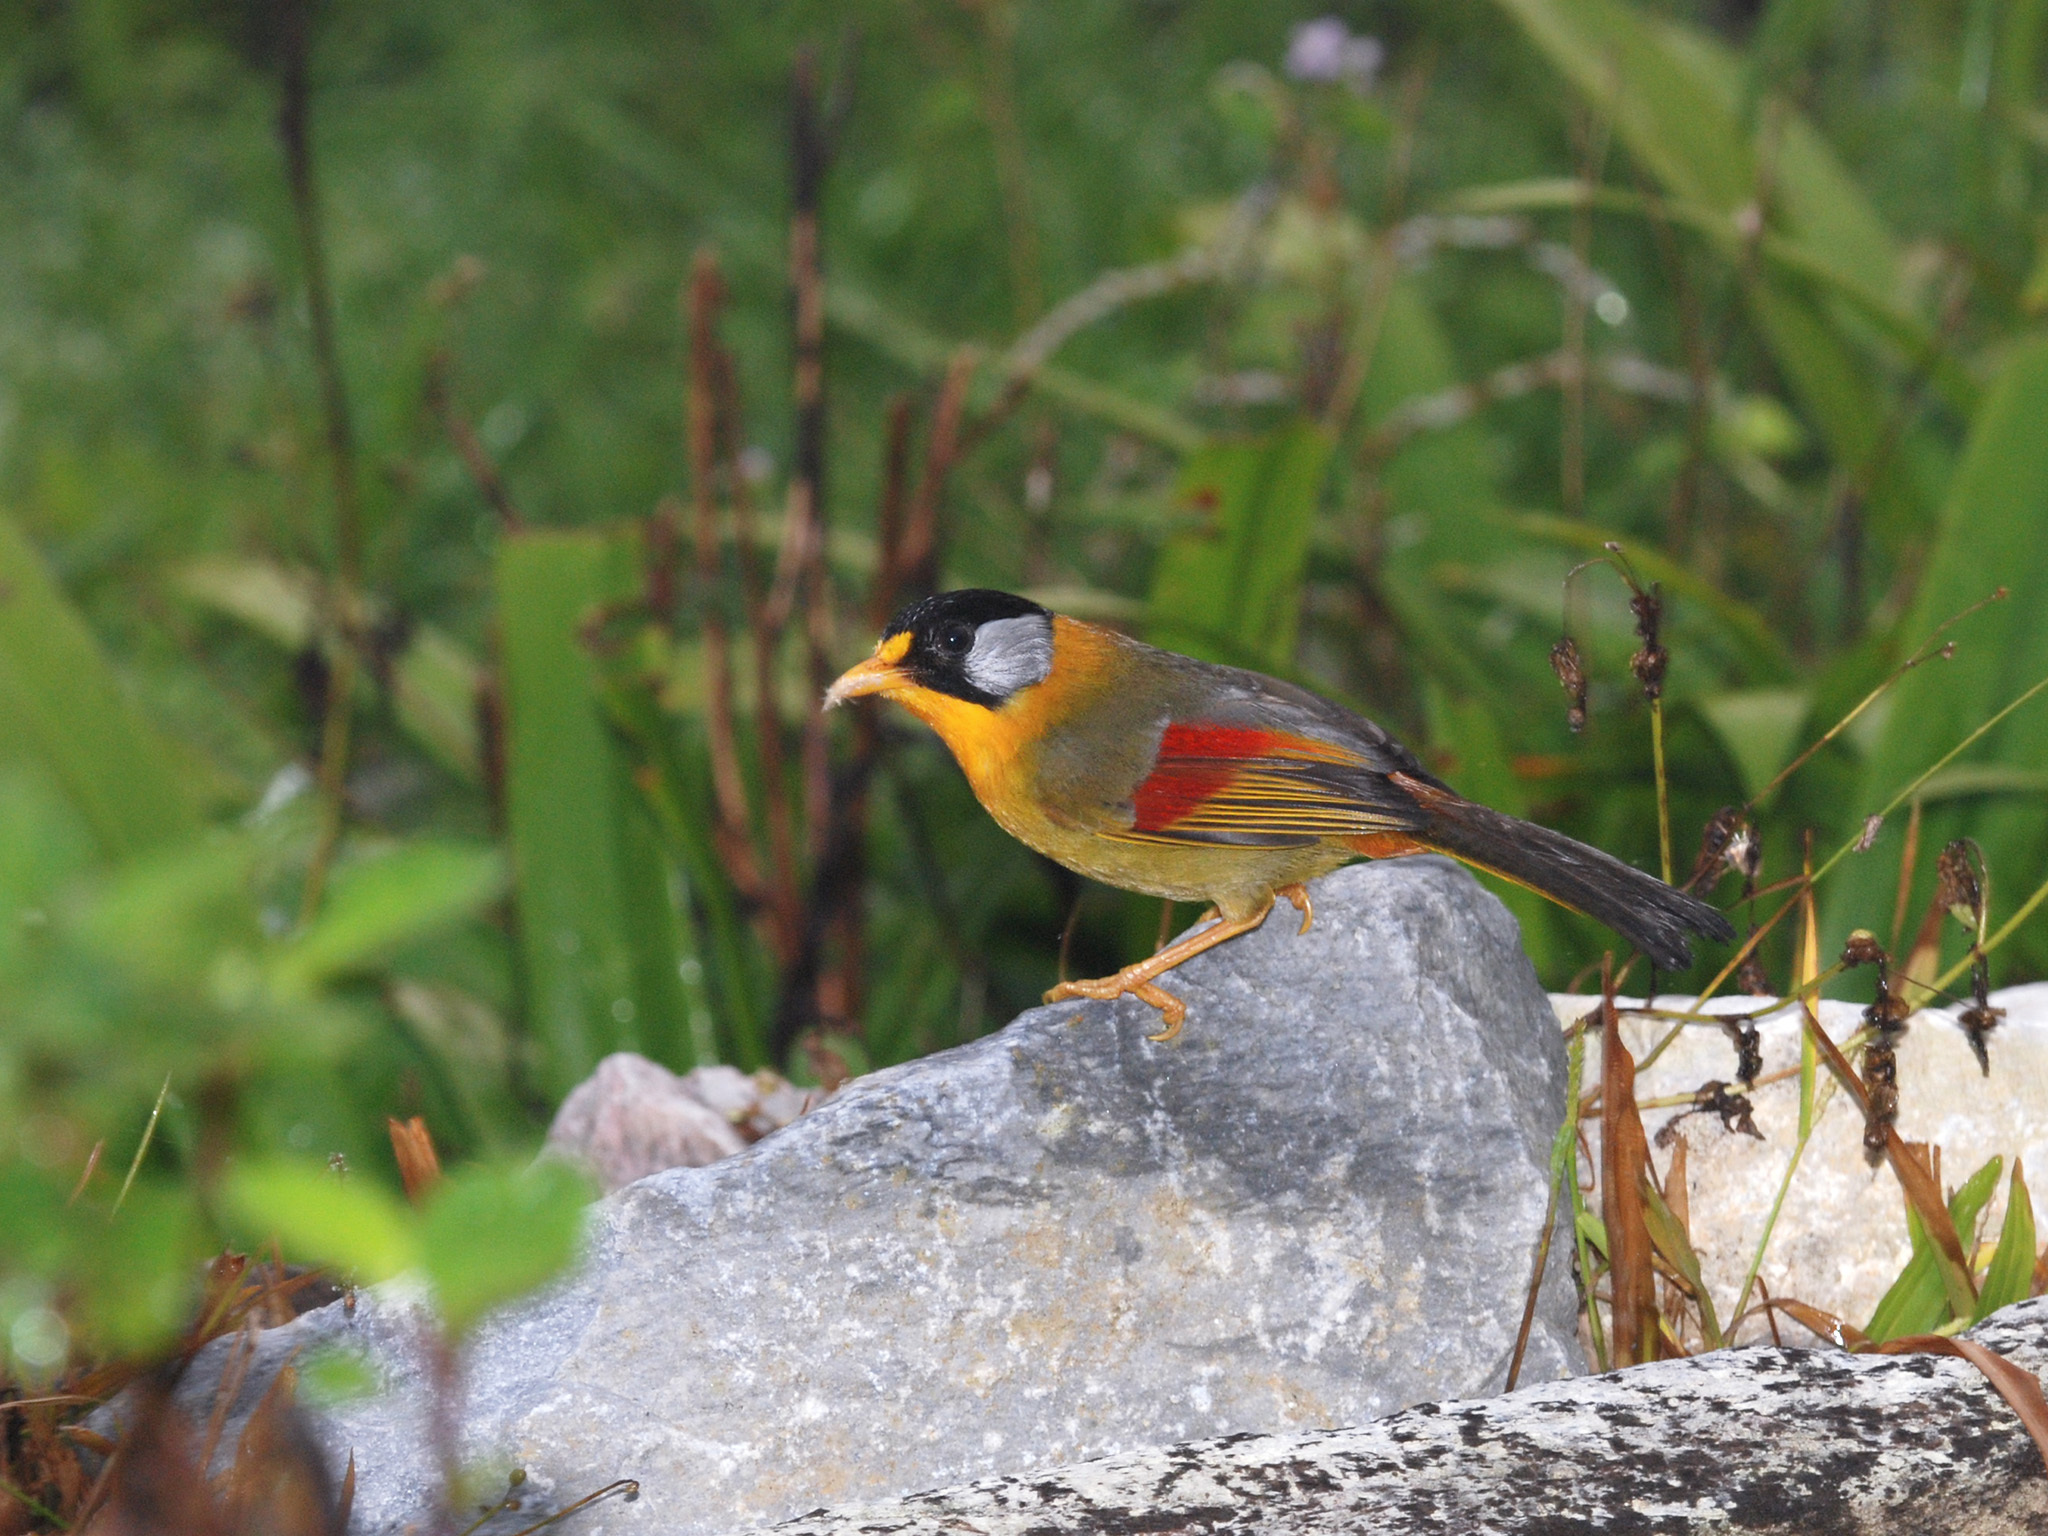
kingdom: Animalia
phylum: Chordata
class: Aves
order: Passeriformes
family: Leiothrichidae
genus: Leiothrix
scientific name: Leiothrix argentauris
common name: Silver-eared mesia
